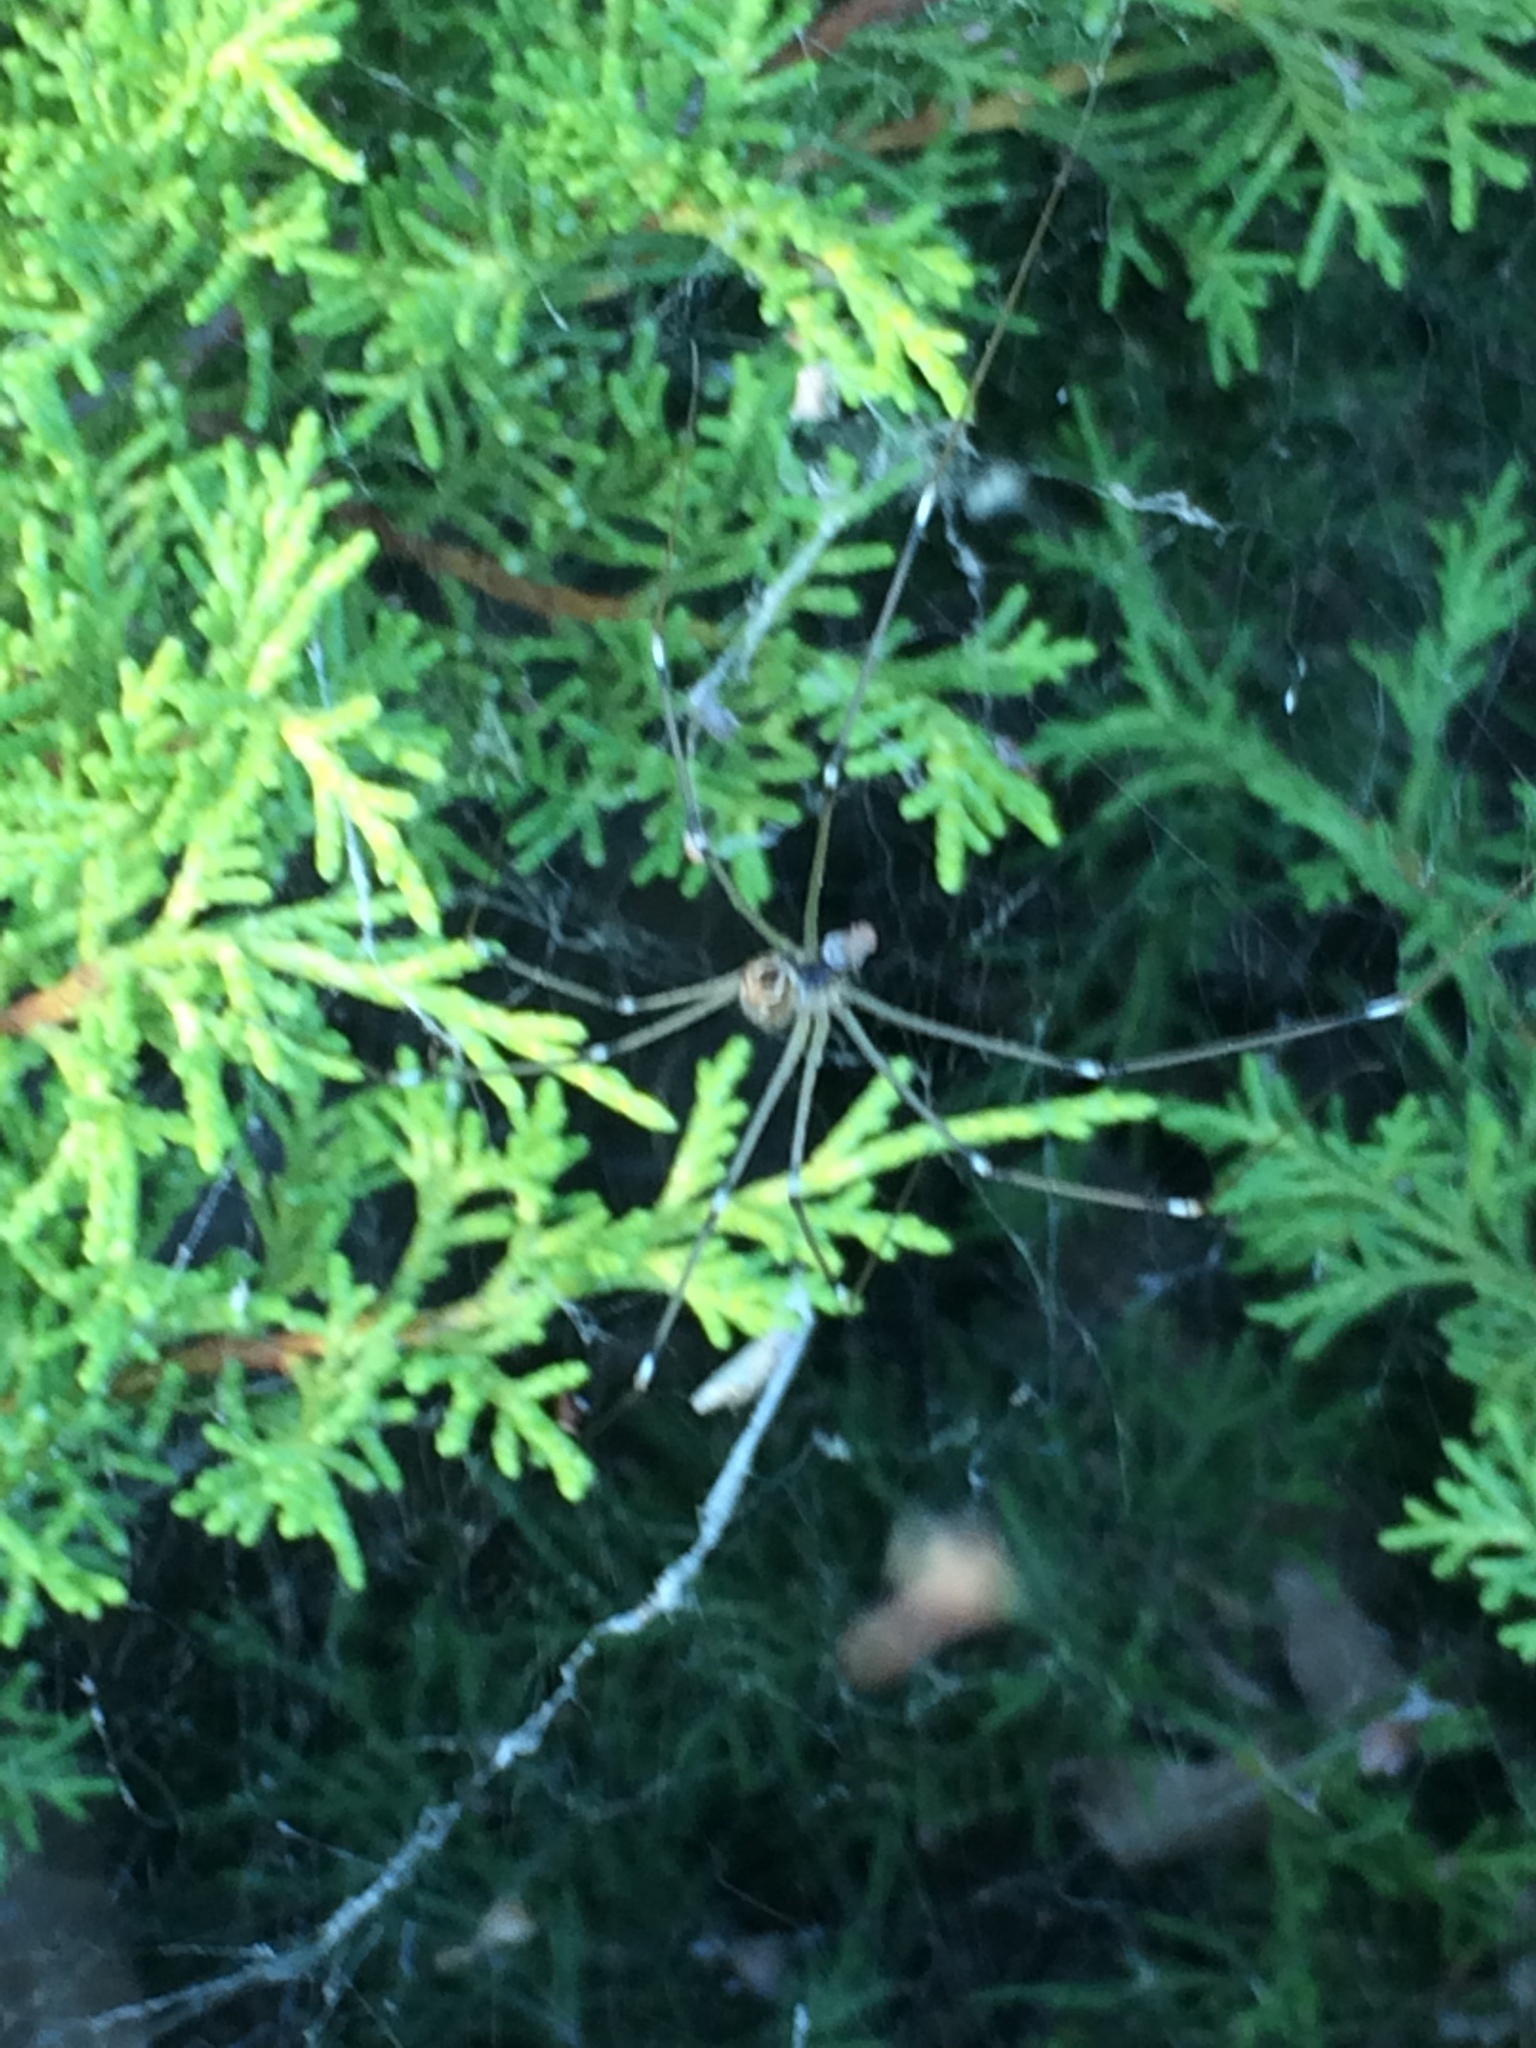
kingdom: Animalia
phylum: Arthropoda
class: Arachnida
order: Araneae
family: Pholcidae
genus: Holocnemus
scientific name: Holocnemus pluchei
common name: Marbled cellar spider
